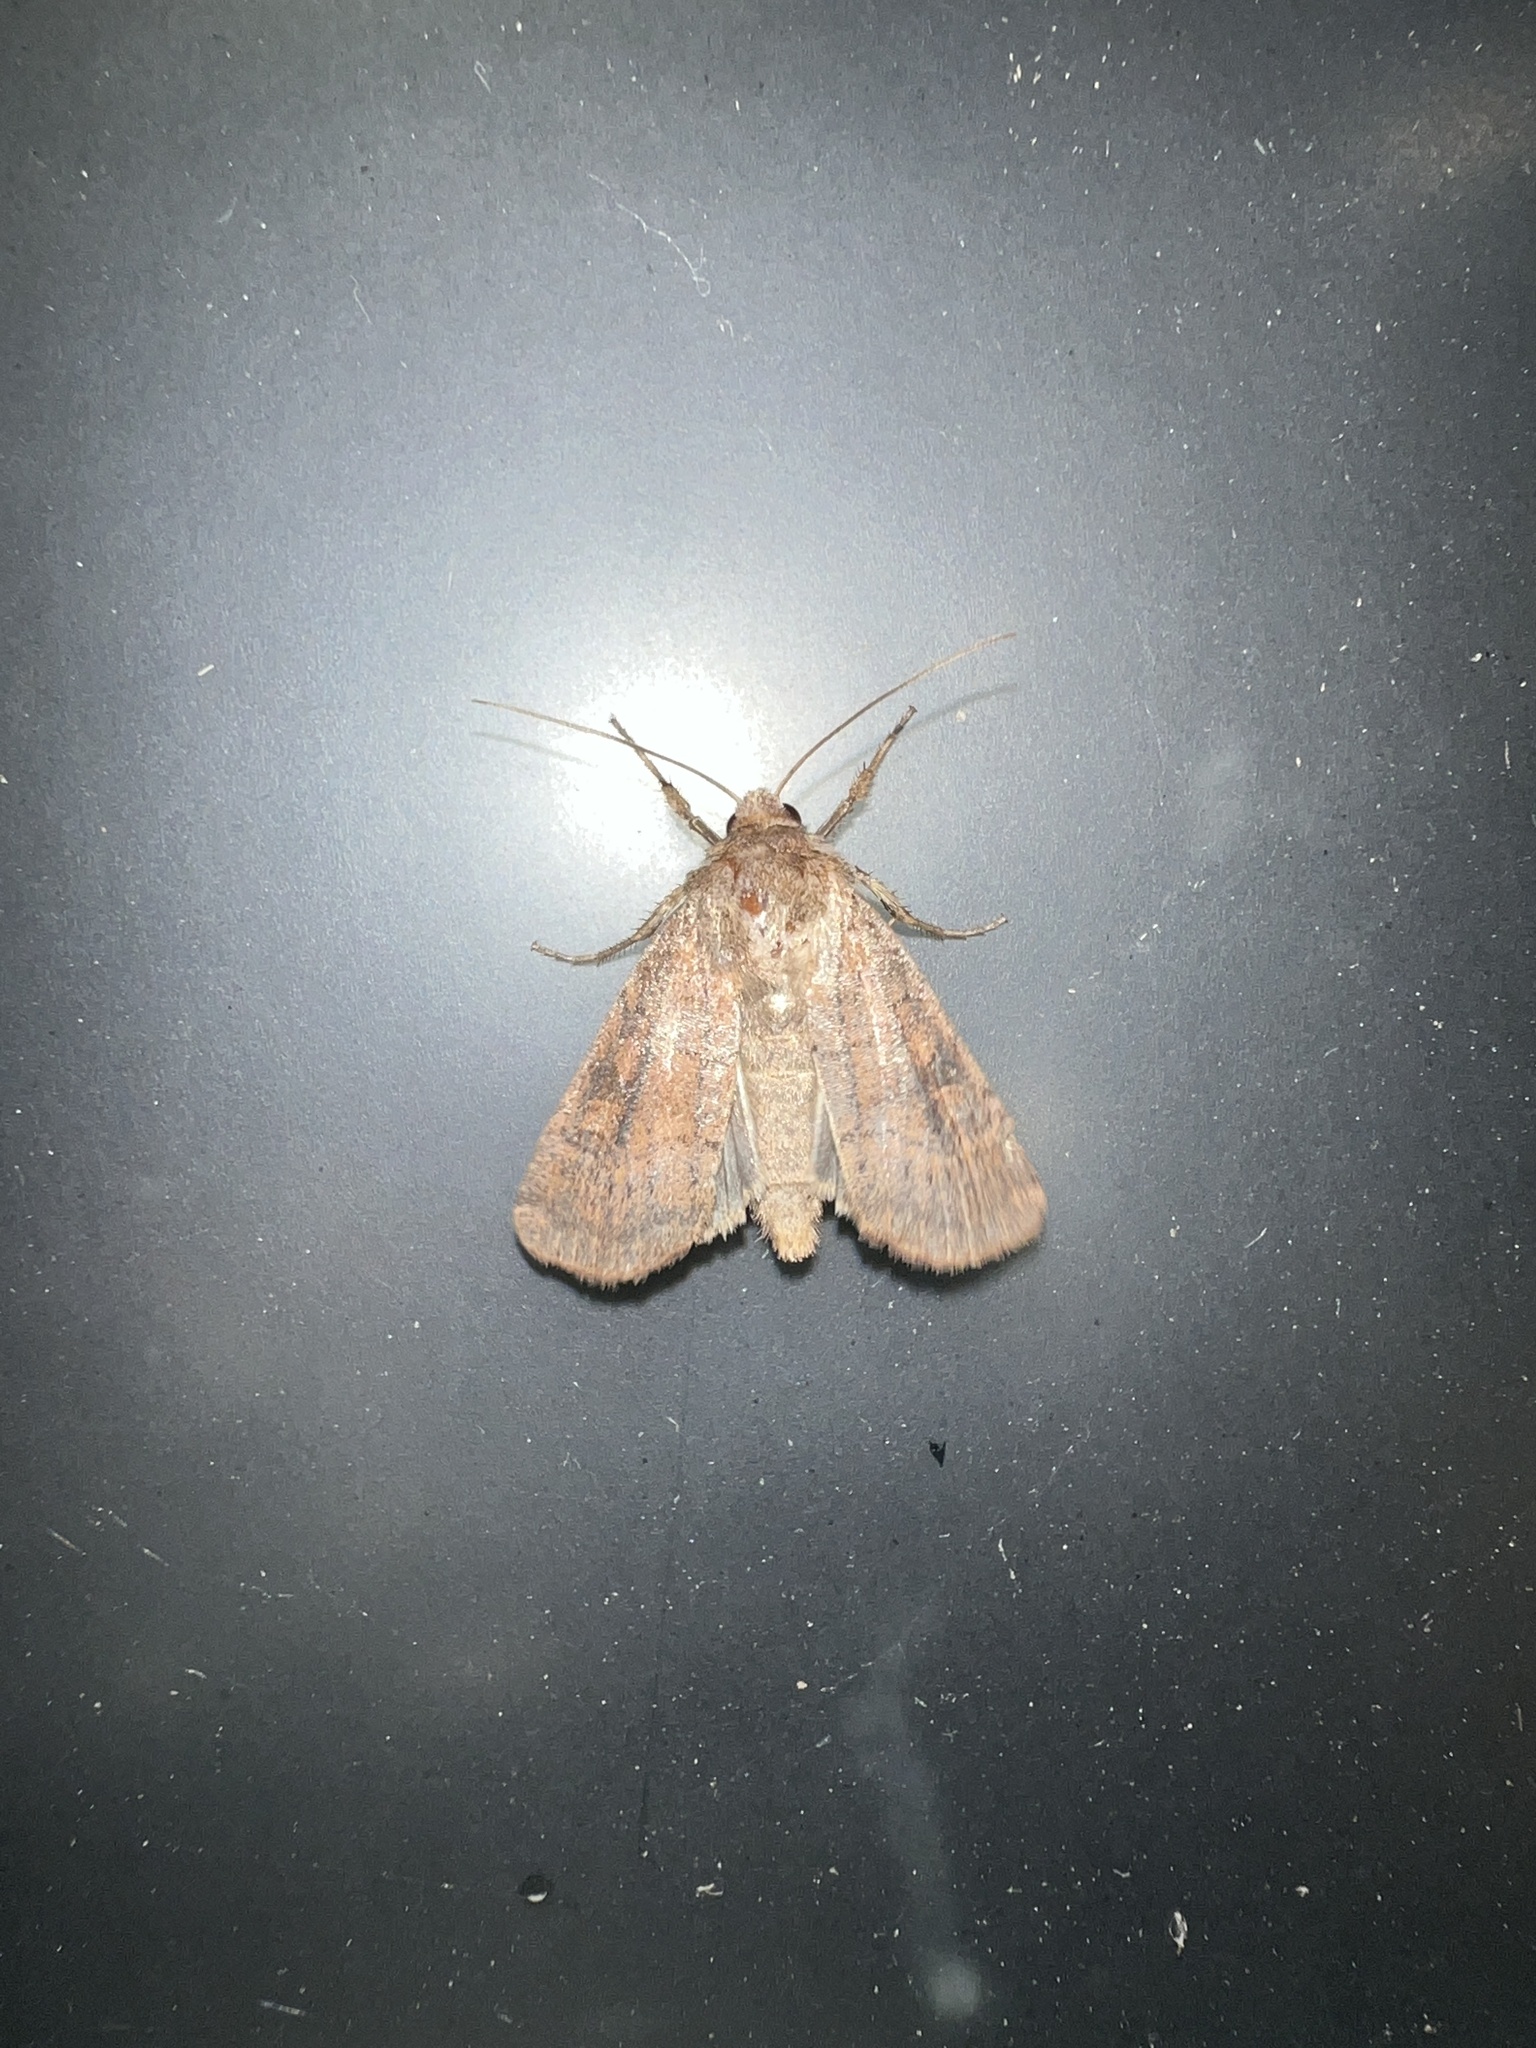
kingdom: Animalia
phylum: Arthropoda
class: Insecta
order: Lepidoptera
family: Noctuidae
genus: Xestia
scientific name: Xestia xanthographa
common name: Square-spot rustic
